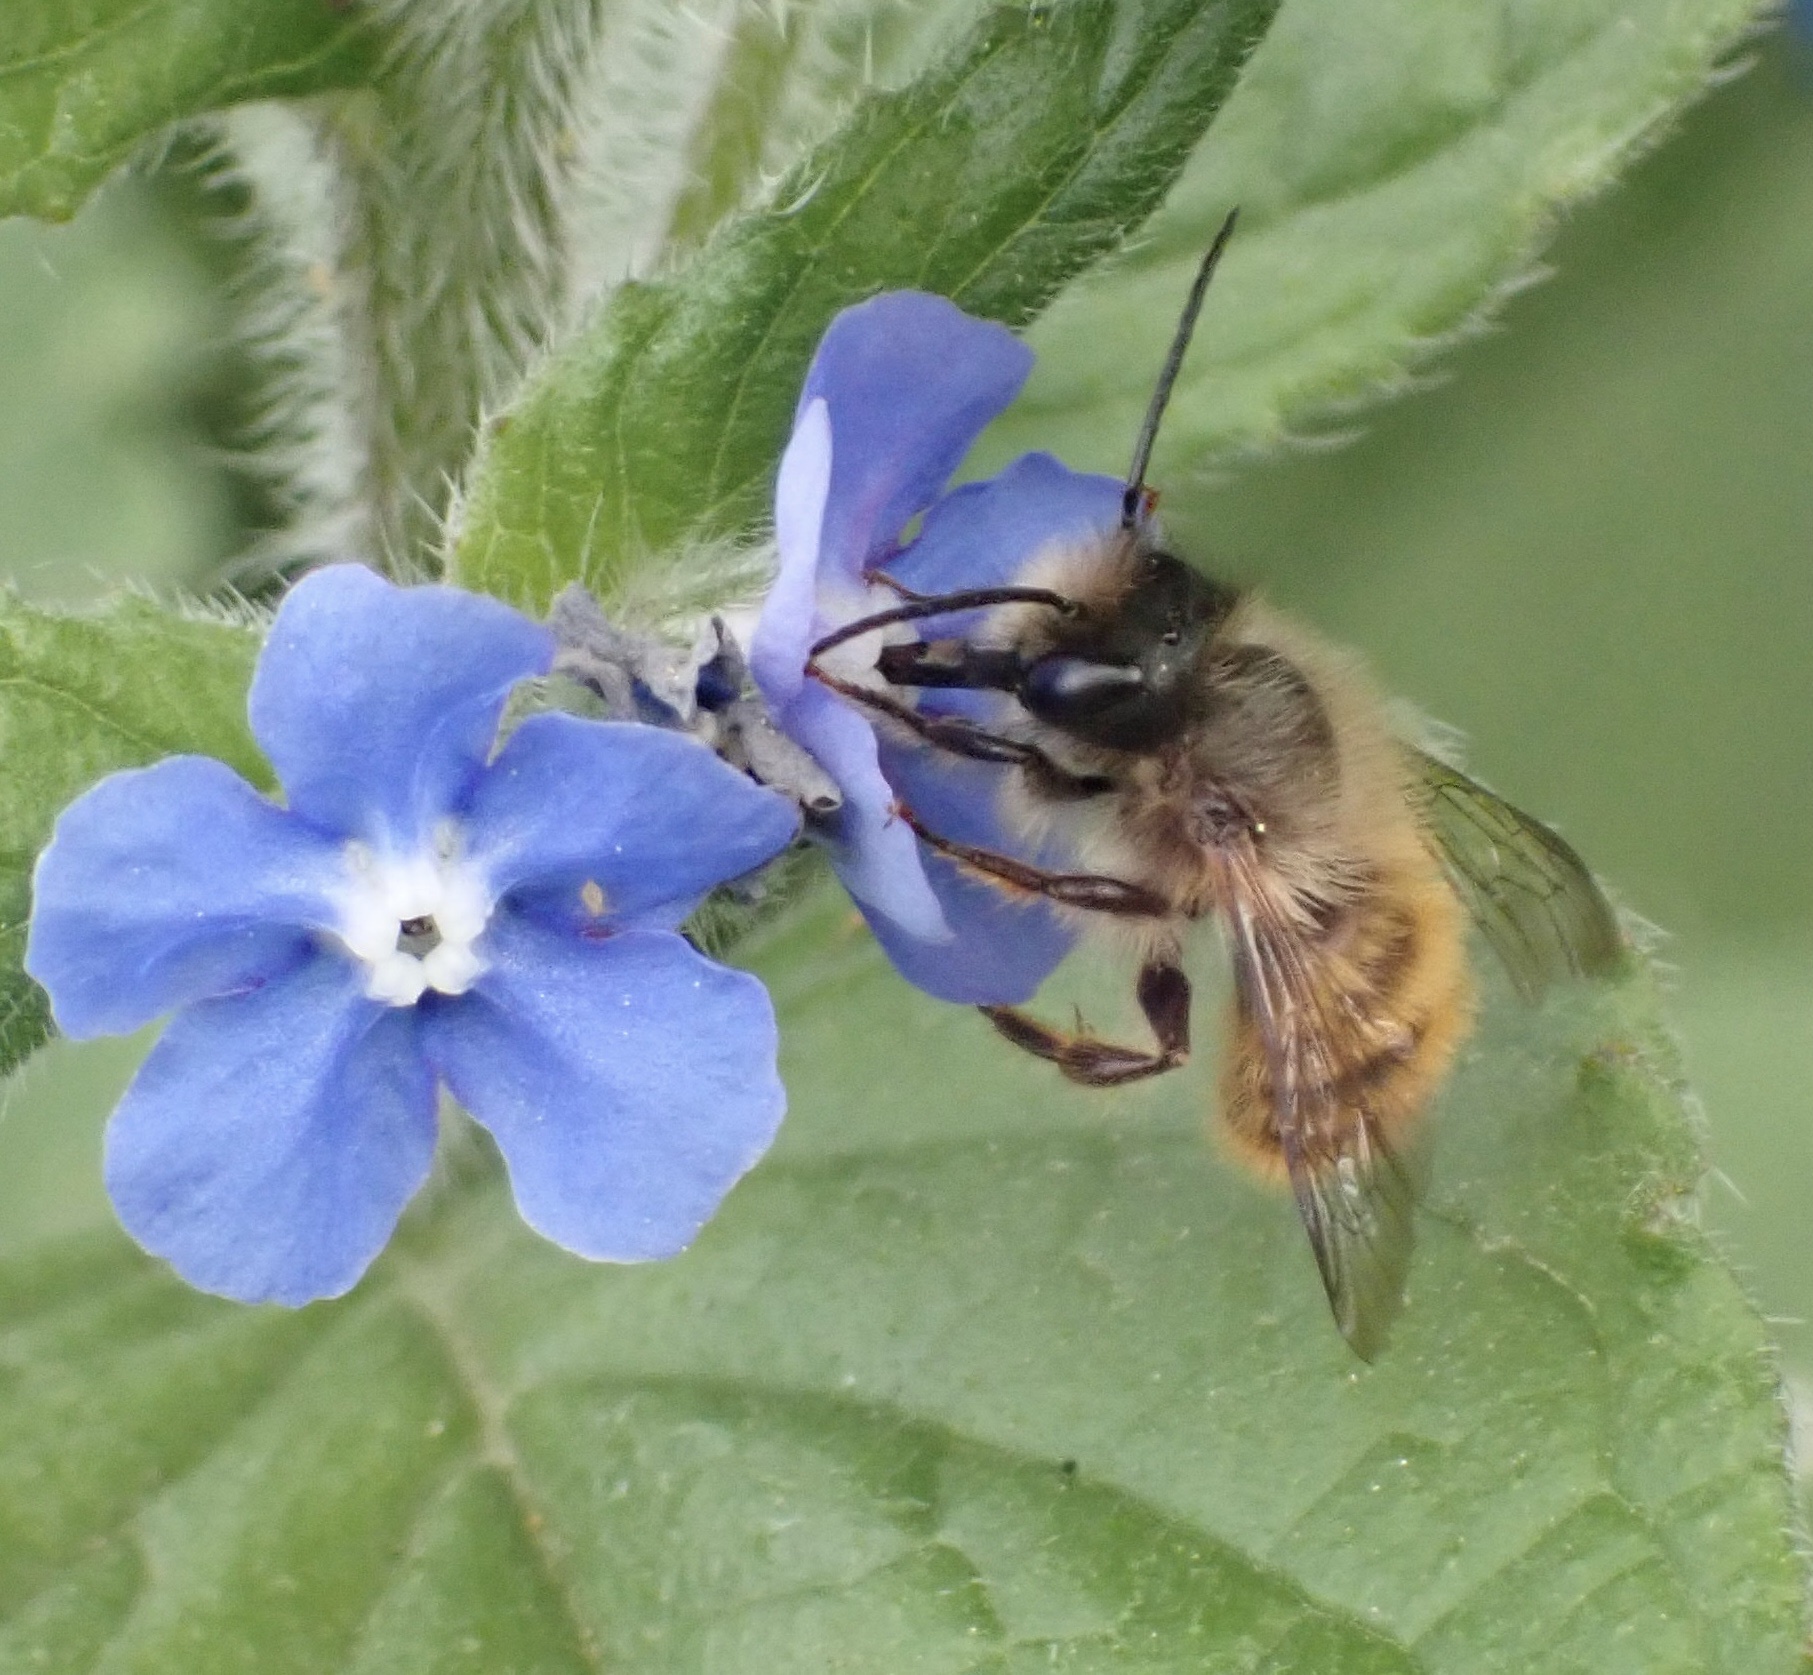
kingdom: Animalia
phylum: Arthropoda
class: Insecta
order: Hymenoptera
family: Megachilidae
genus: Osmia
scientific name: Osmia bicornis
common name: Red mason bee
